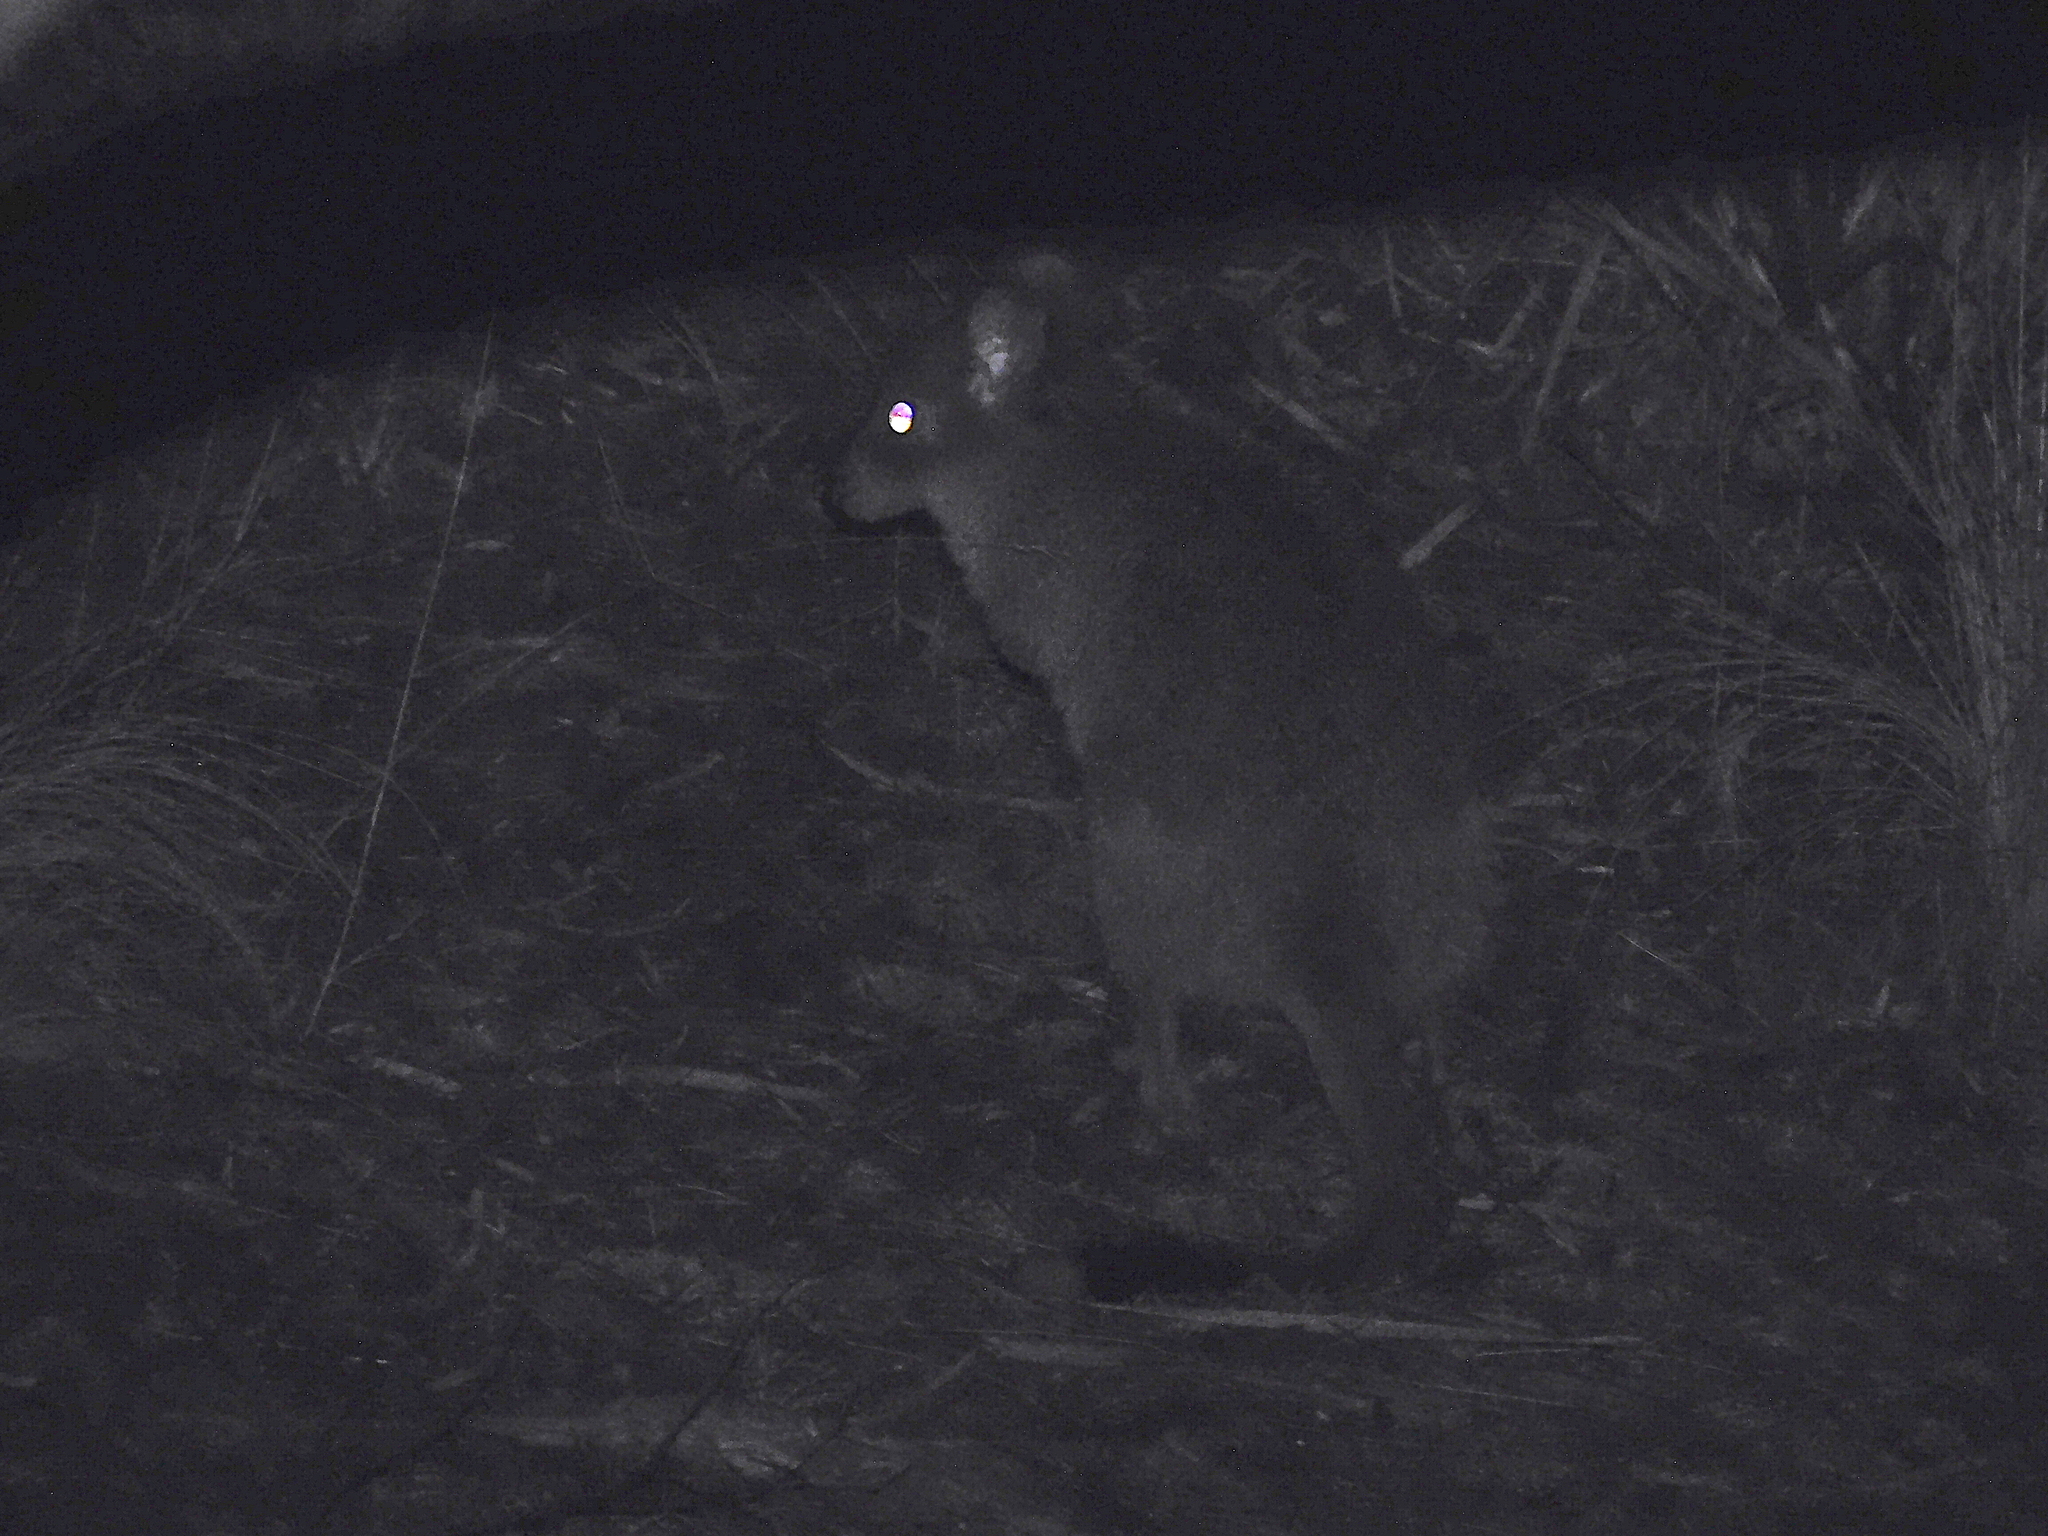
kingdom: Animalia
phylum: Chordata
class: Mammalia
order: Diprotodontia
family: Potoroidae
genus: Bettongia
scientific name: Bettongia gaimardi
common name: Eastern bettong
